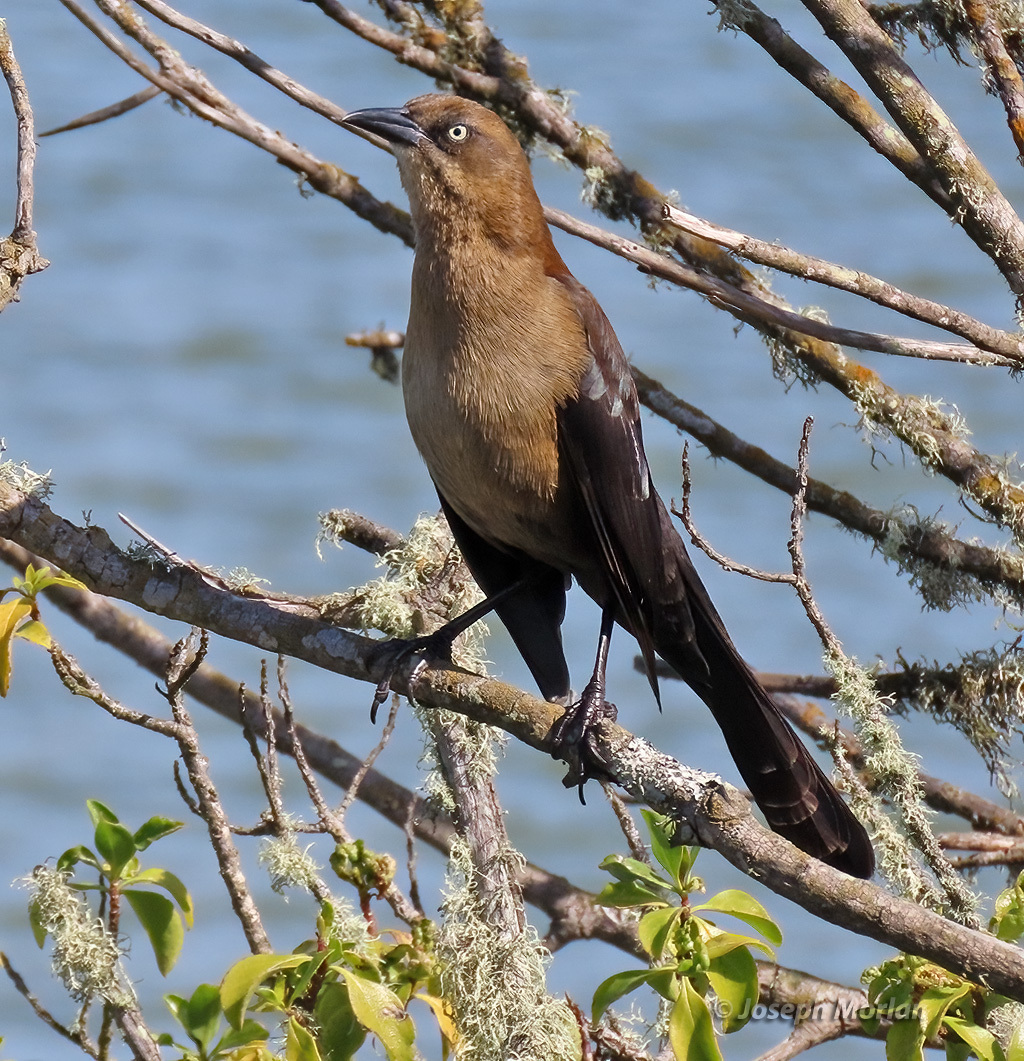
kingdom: Animalia
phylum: Chordata
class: Aves
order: Passeriformes
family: Icteridae
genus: Quiscalus
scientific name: Quiscalus mexicanus
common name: Great-tailed grackle
